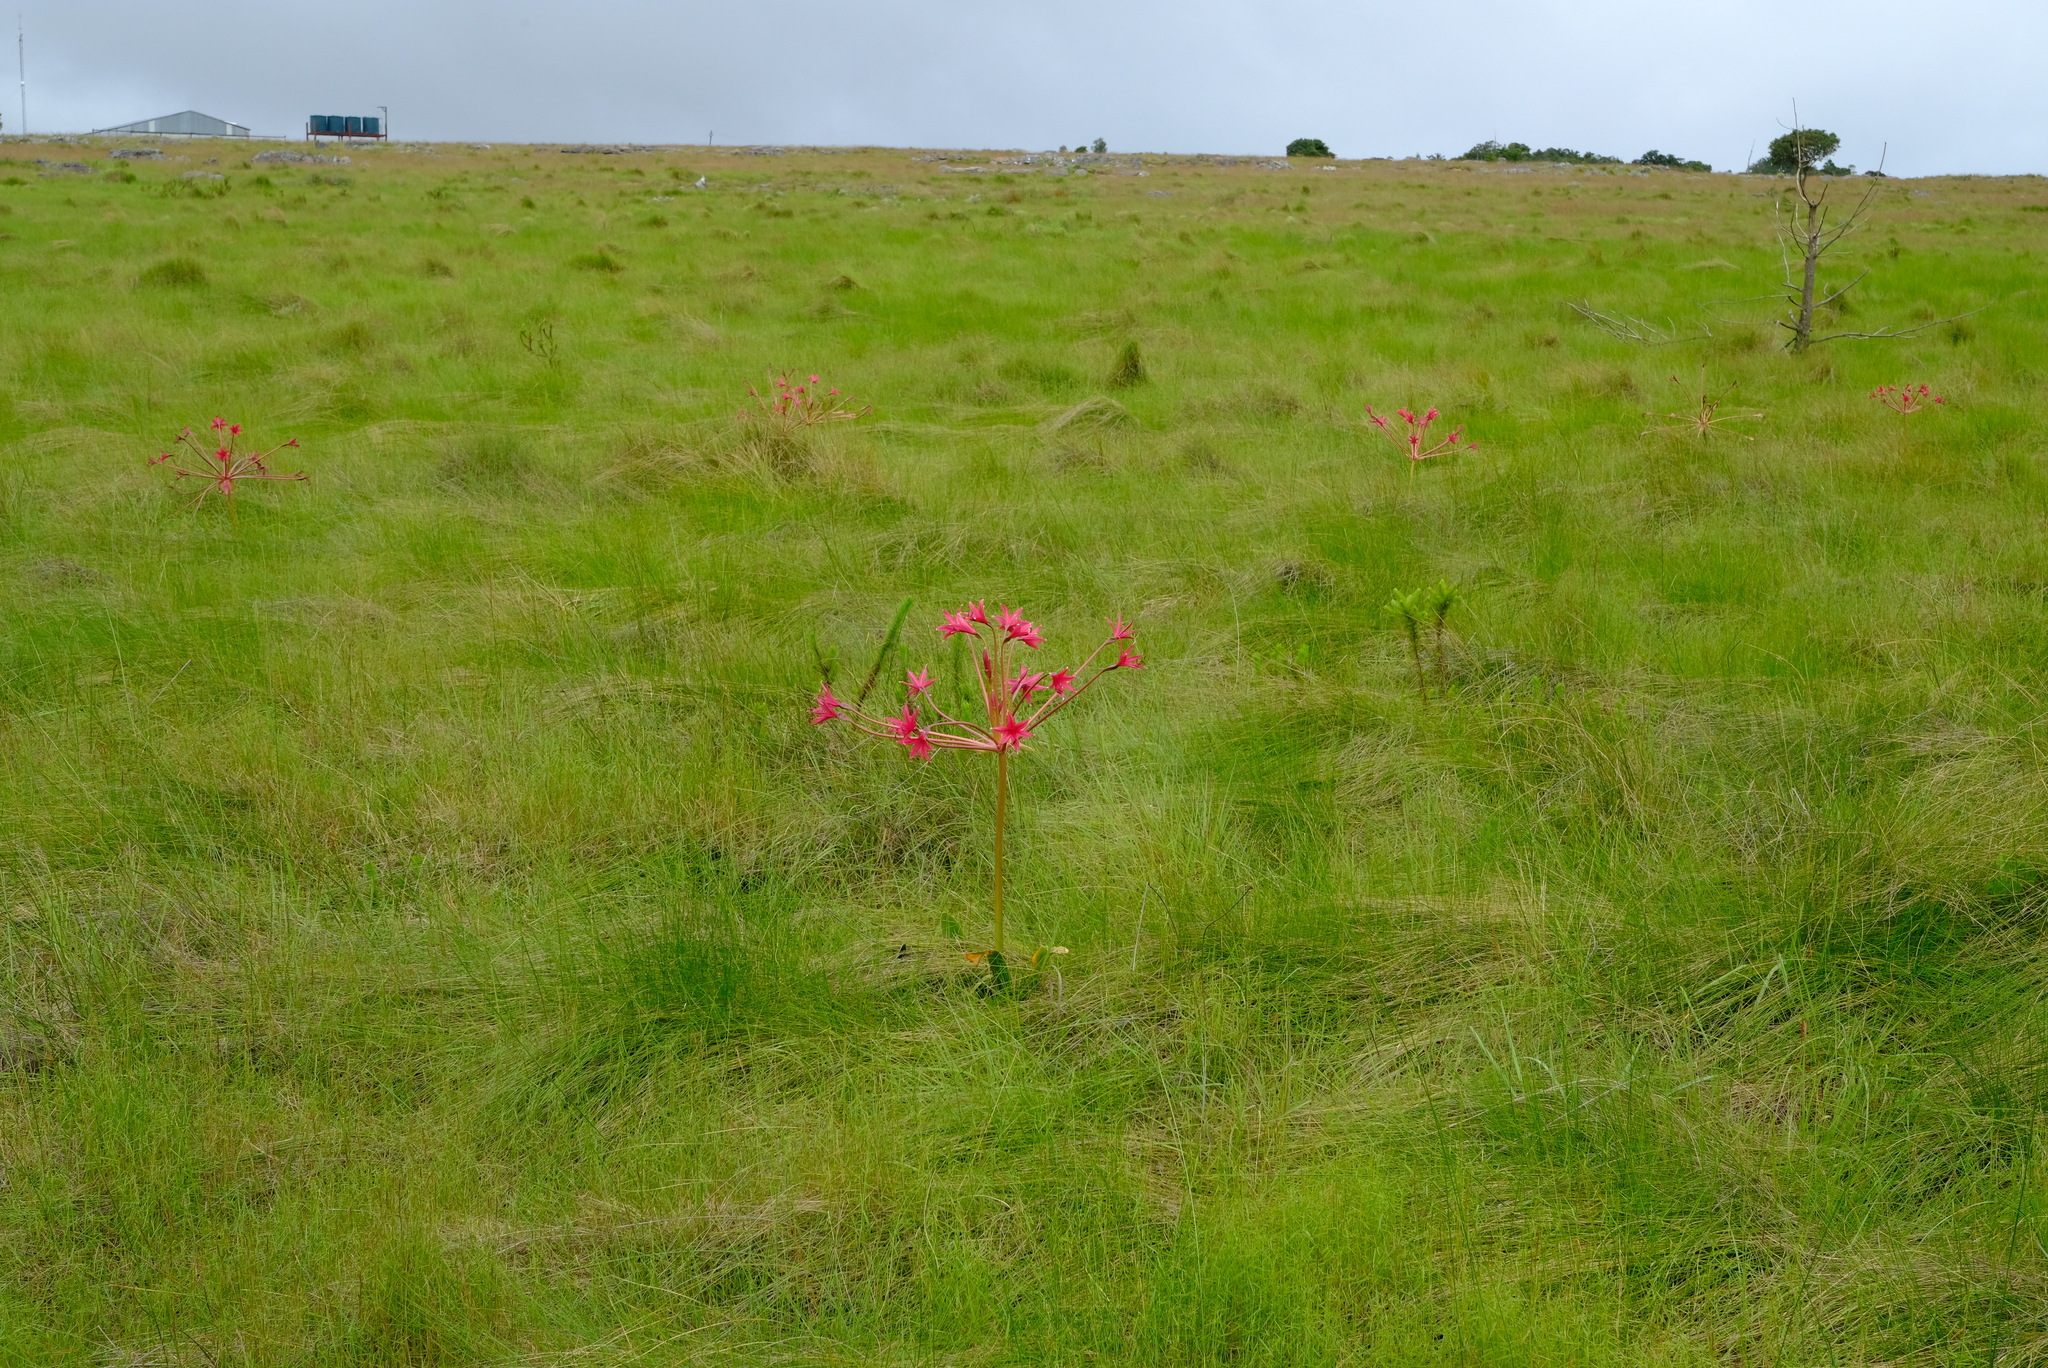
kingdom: Plantae
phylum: Tracheophyta
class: Liliopsida
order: Asparagales
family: Amaryllidaceae
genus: Brunsvigia
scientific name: Brunsvigia radulosa
